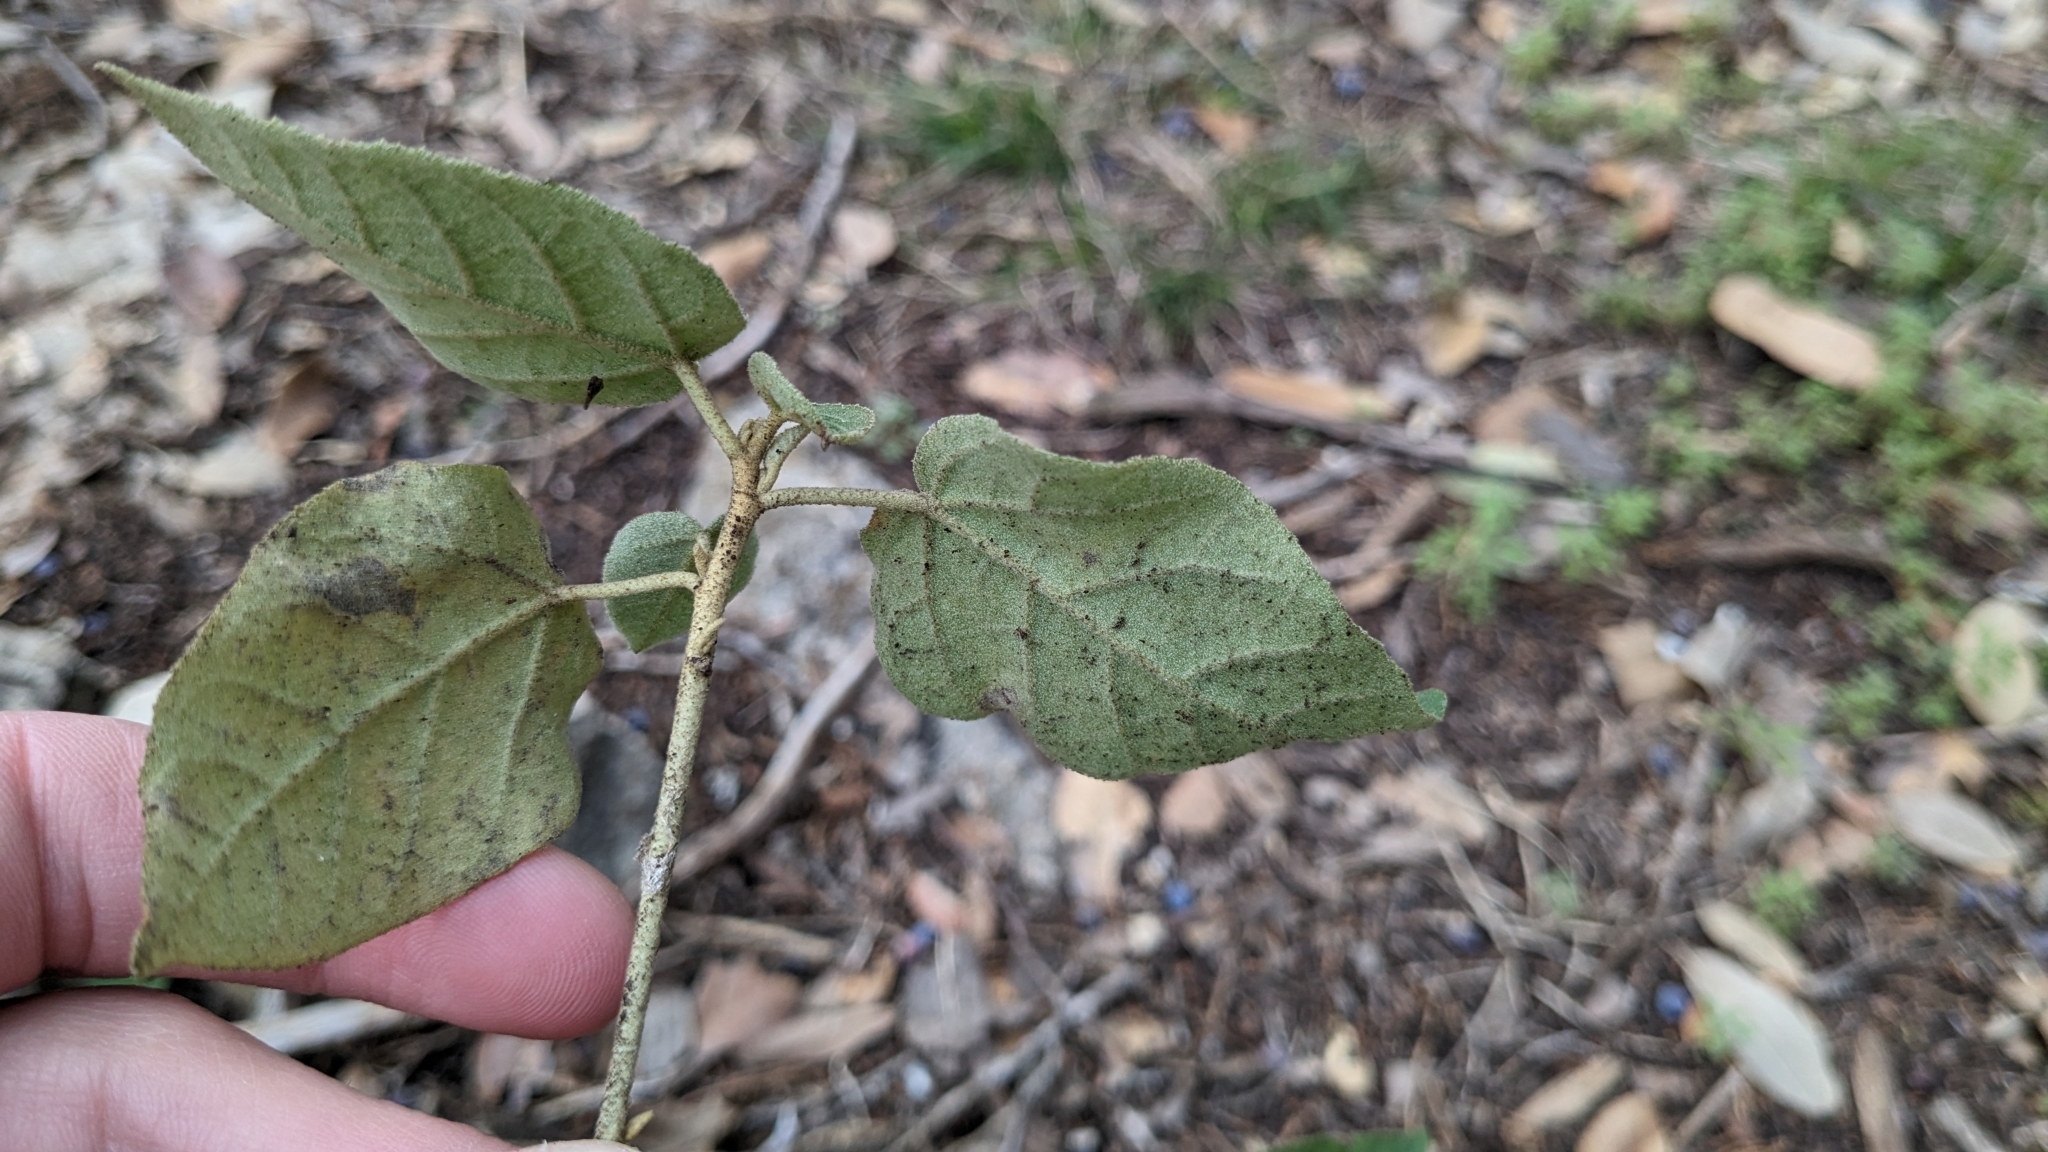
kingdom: Plantae
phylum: Tracheophyta
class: Magnoliopsida
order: Malpighiales
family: Euphorbiaceae
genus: Croton
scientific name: Croton fruticulosus
